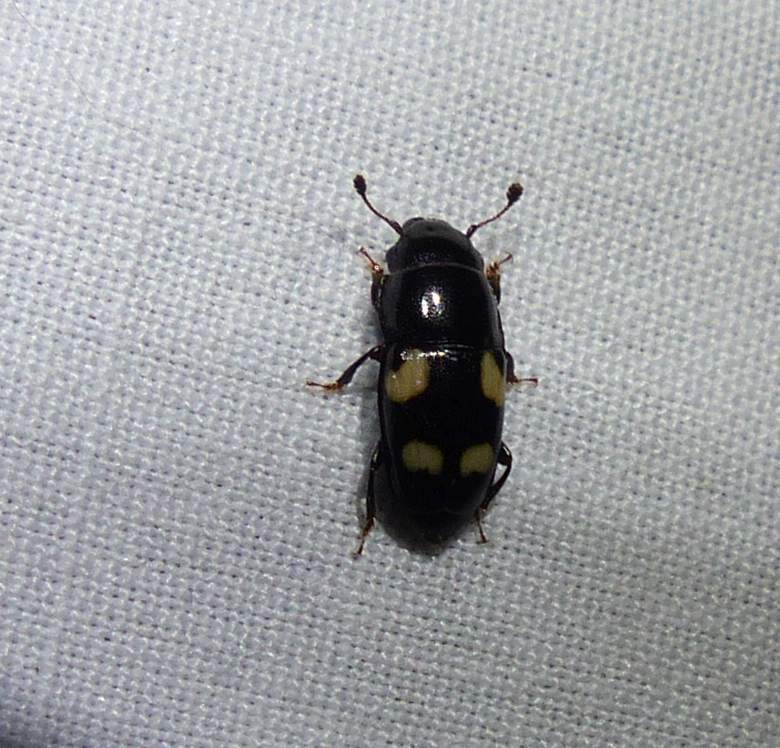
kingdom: Animalia
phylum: Arthropoda
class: Insecta
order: Coleoptera
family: Nitidulidae
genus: Glischrochilus
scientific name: Glischrochilus quadrisignatus
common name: Picnic beetle
